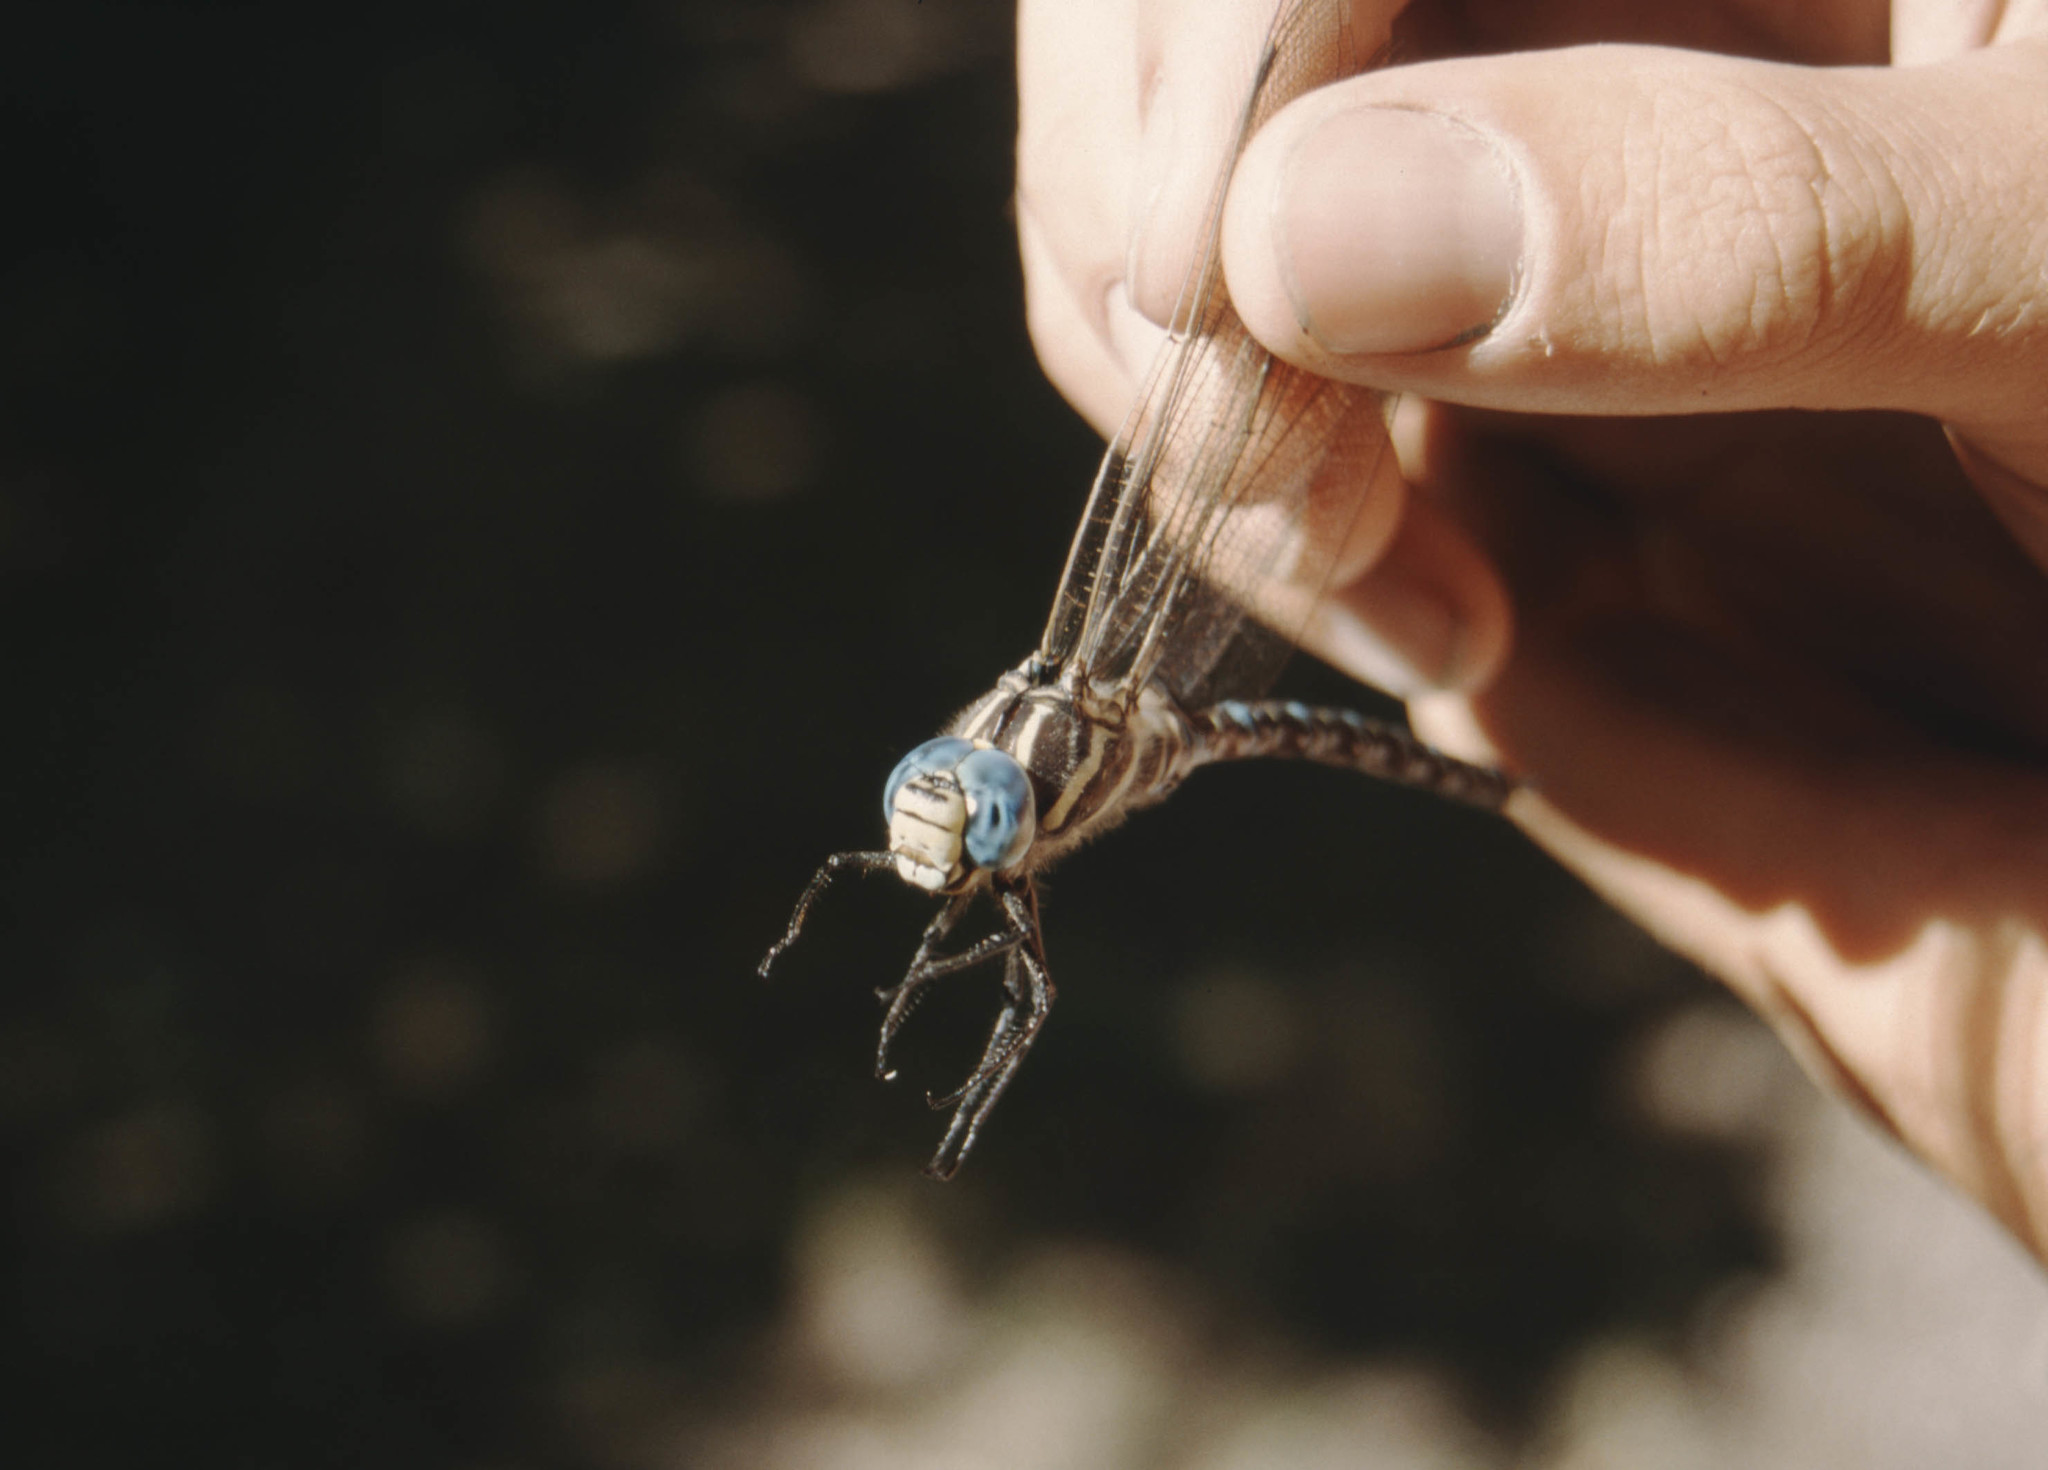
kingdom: Animalia
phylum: Arthropoda
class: Insecta
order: Odonata
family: Aeshnidae
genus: Aeshna
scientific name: Aeshna juncea
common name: Moorland hawker
